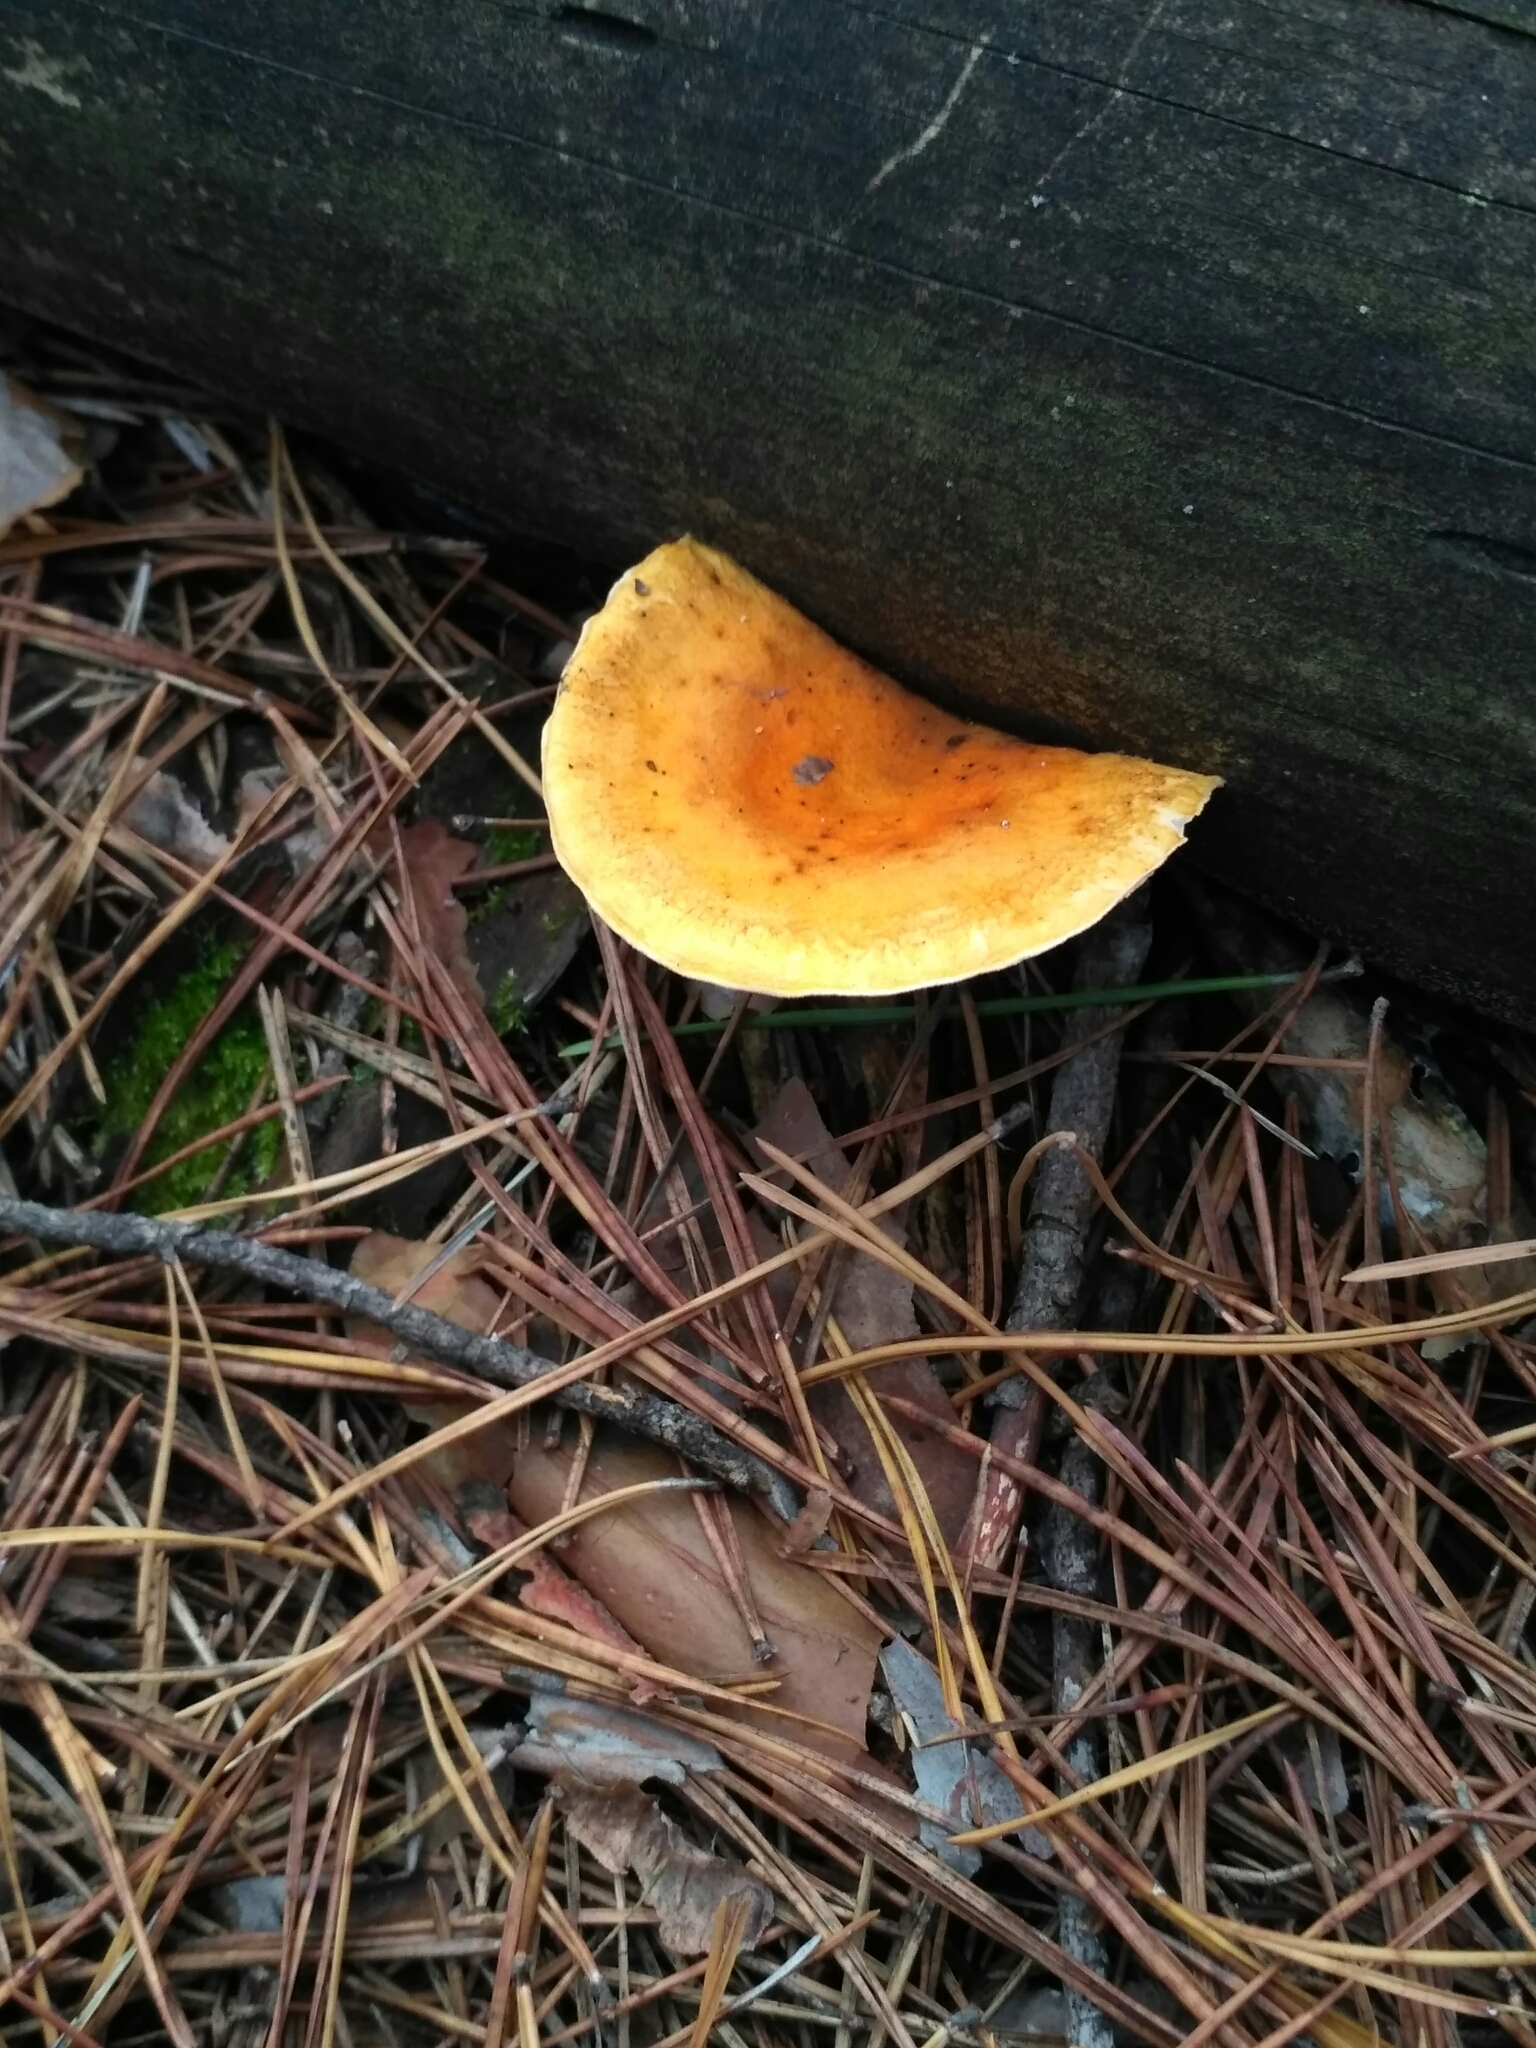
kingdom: Fungi
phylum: Basidiomycota
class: Agaricomycetes
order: Boletales
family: Hygrophoropsidaceae
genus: Hygrophoropsis
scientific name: Hygrophoropsis aurantiaca
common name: False chanterelle
